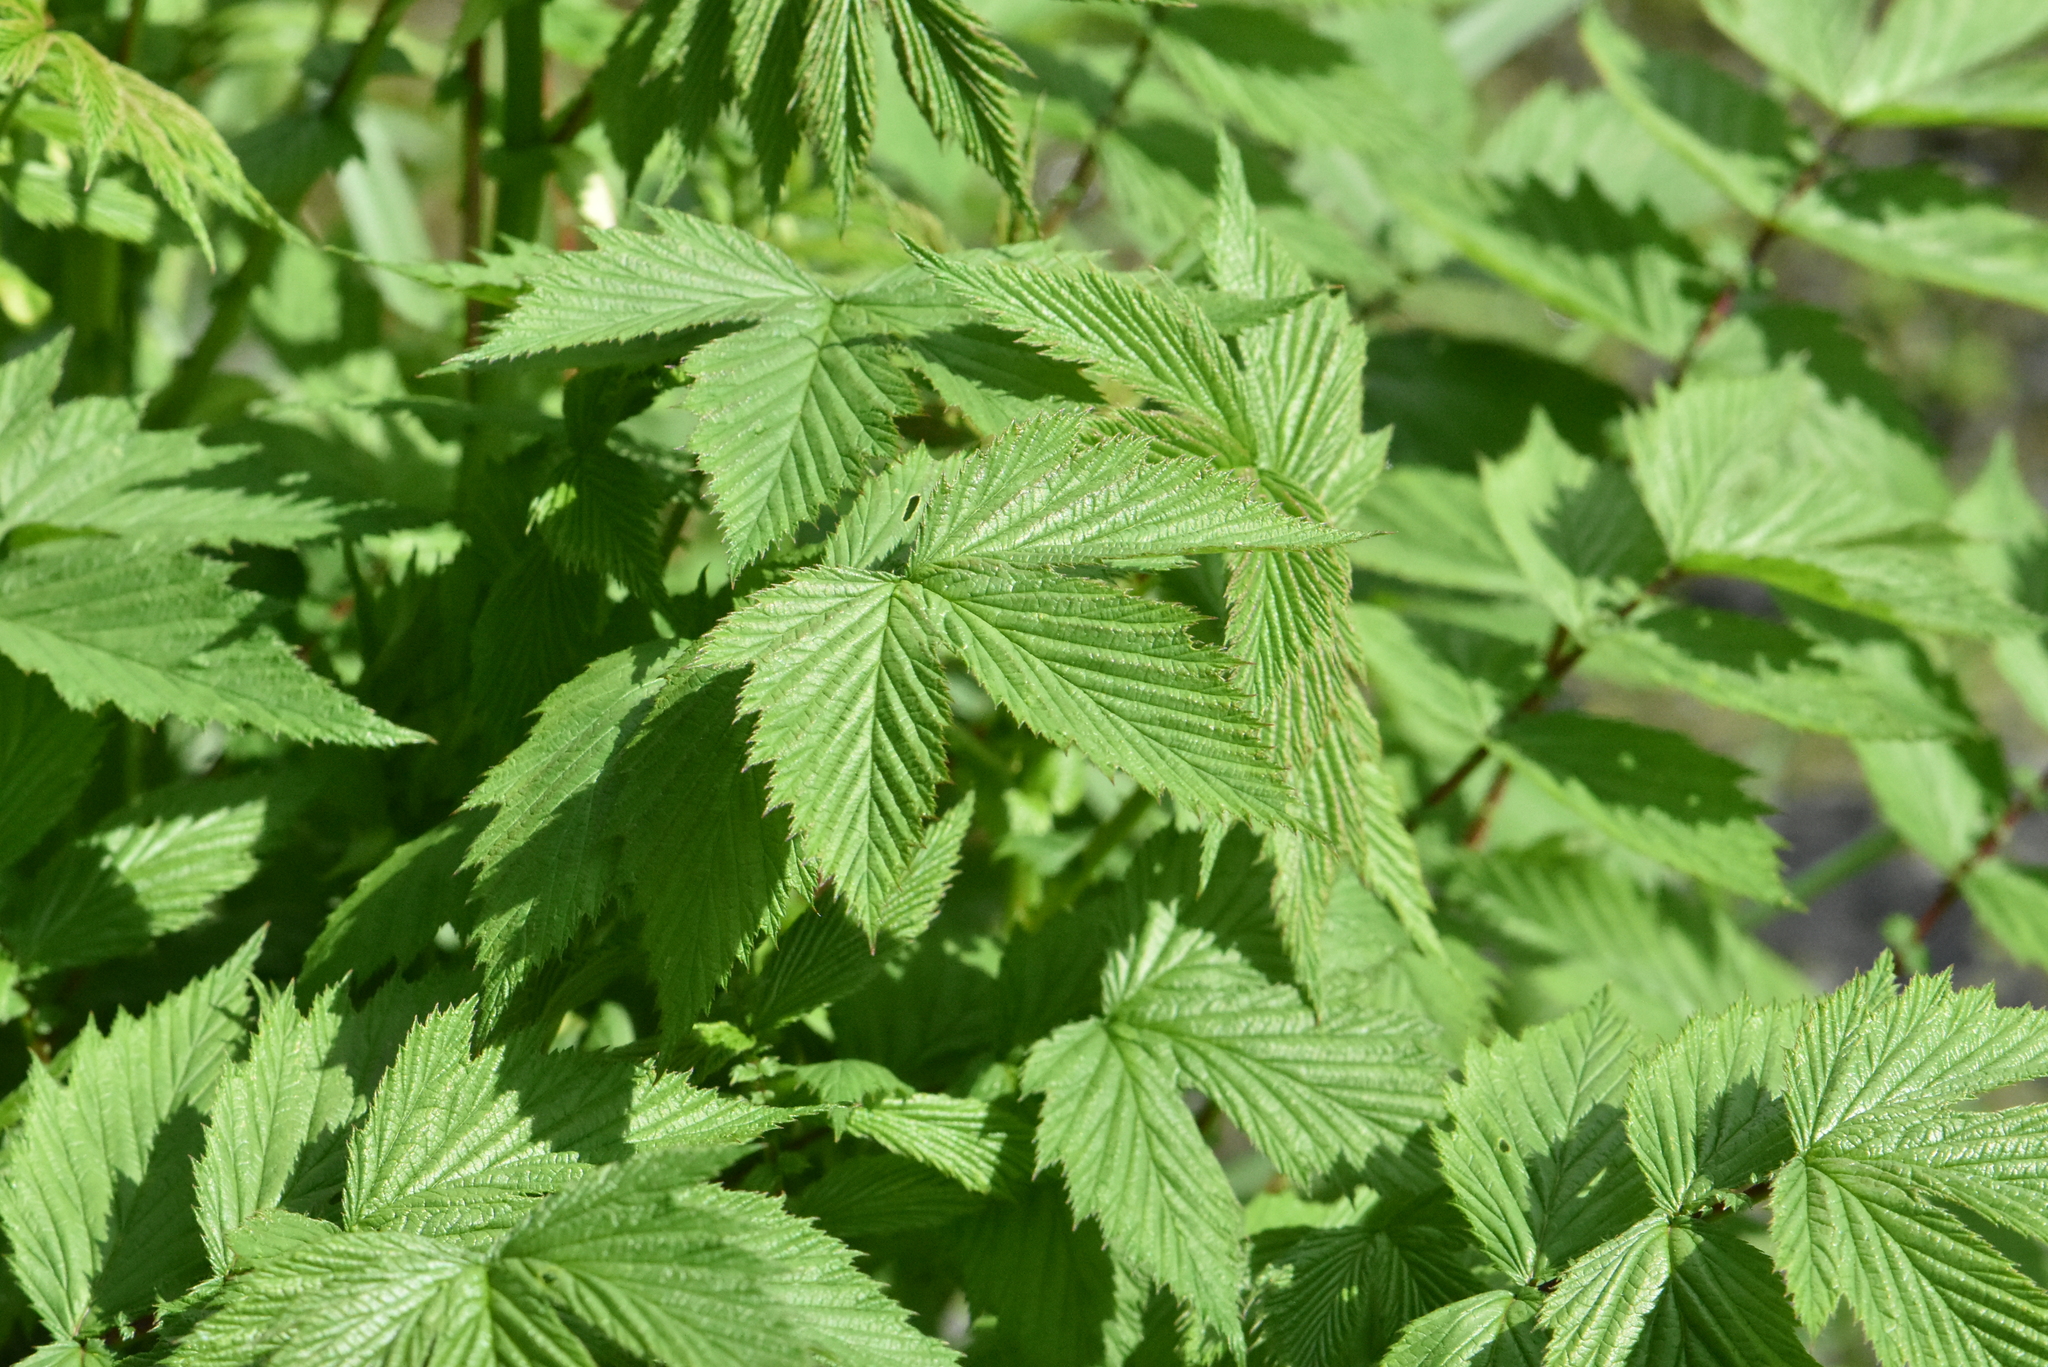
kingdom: Plantae
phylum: Tracheophyta
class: Magnoliopsida
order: Rosales
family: Rosaceae
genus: Filipendula
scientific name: Filipendula ulmaria
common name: Meadowsweet
